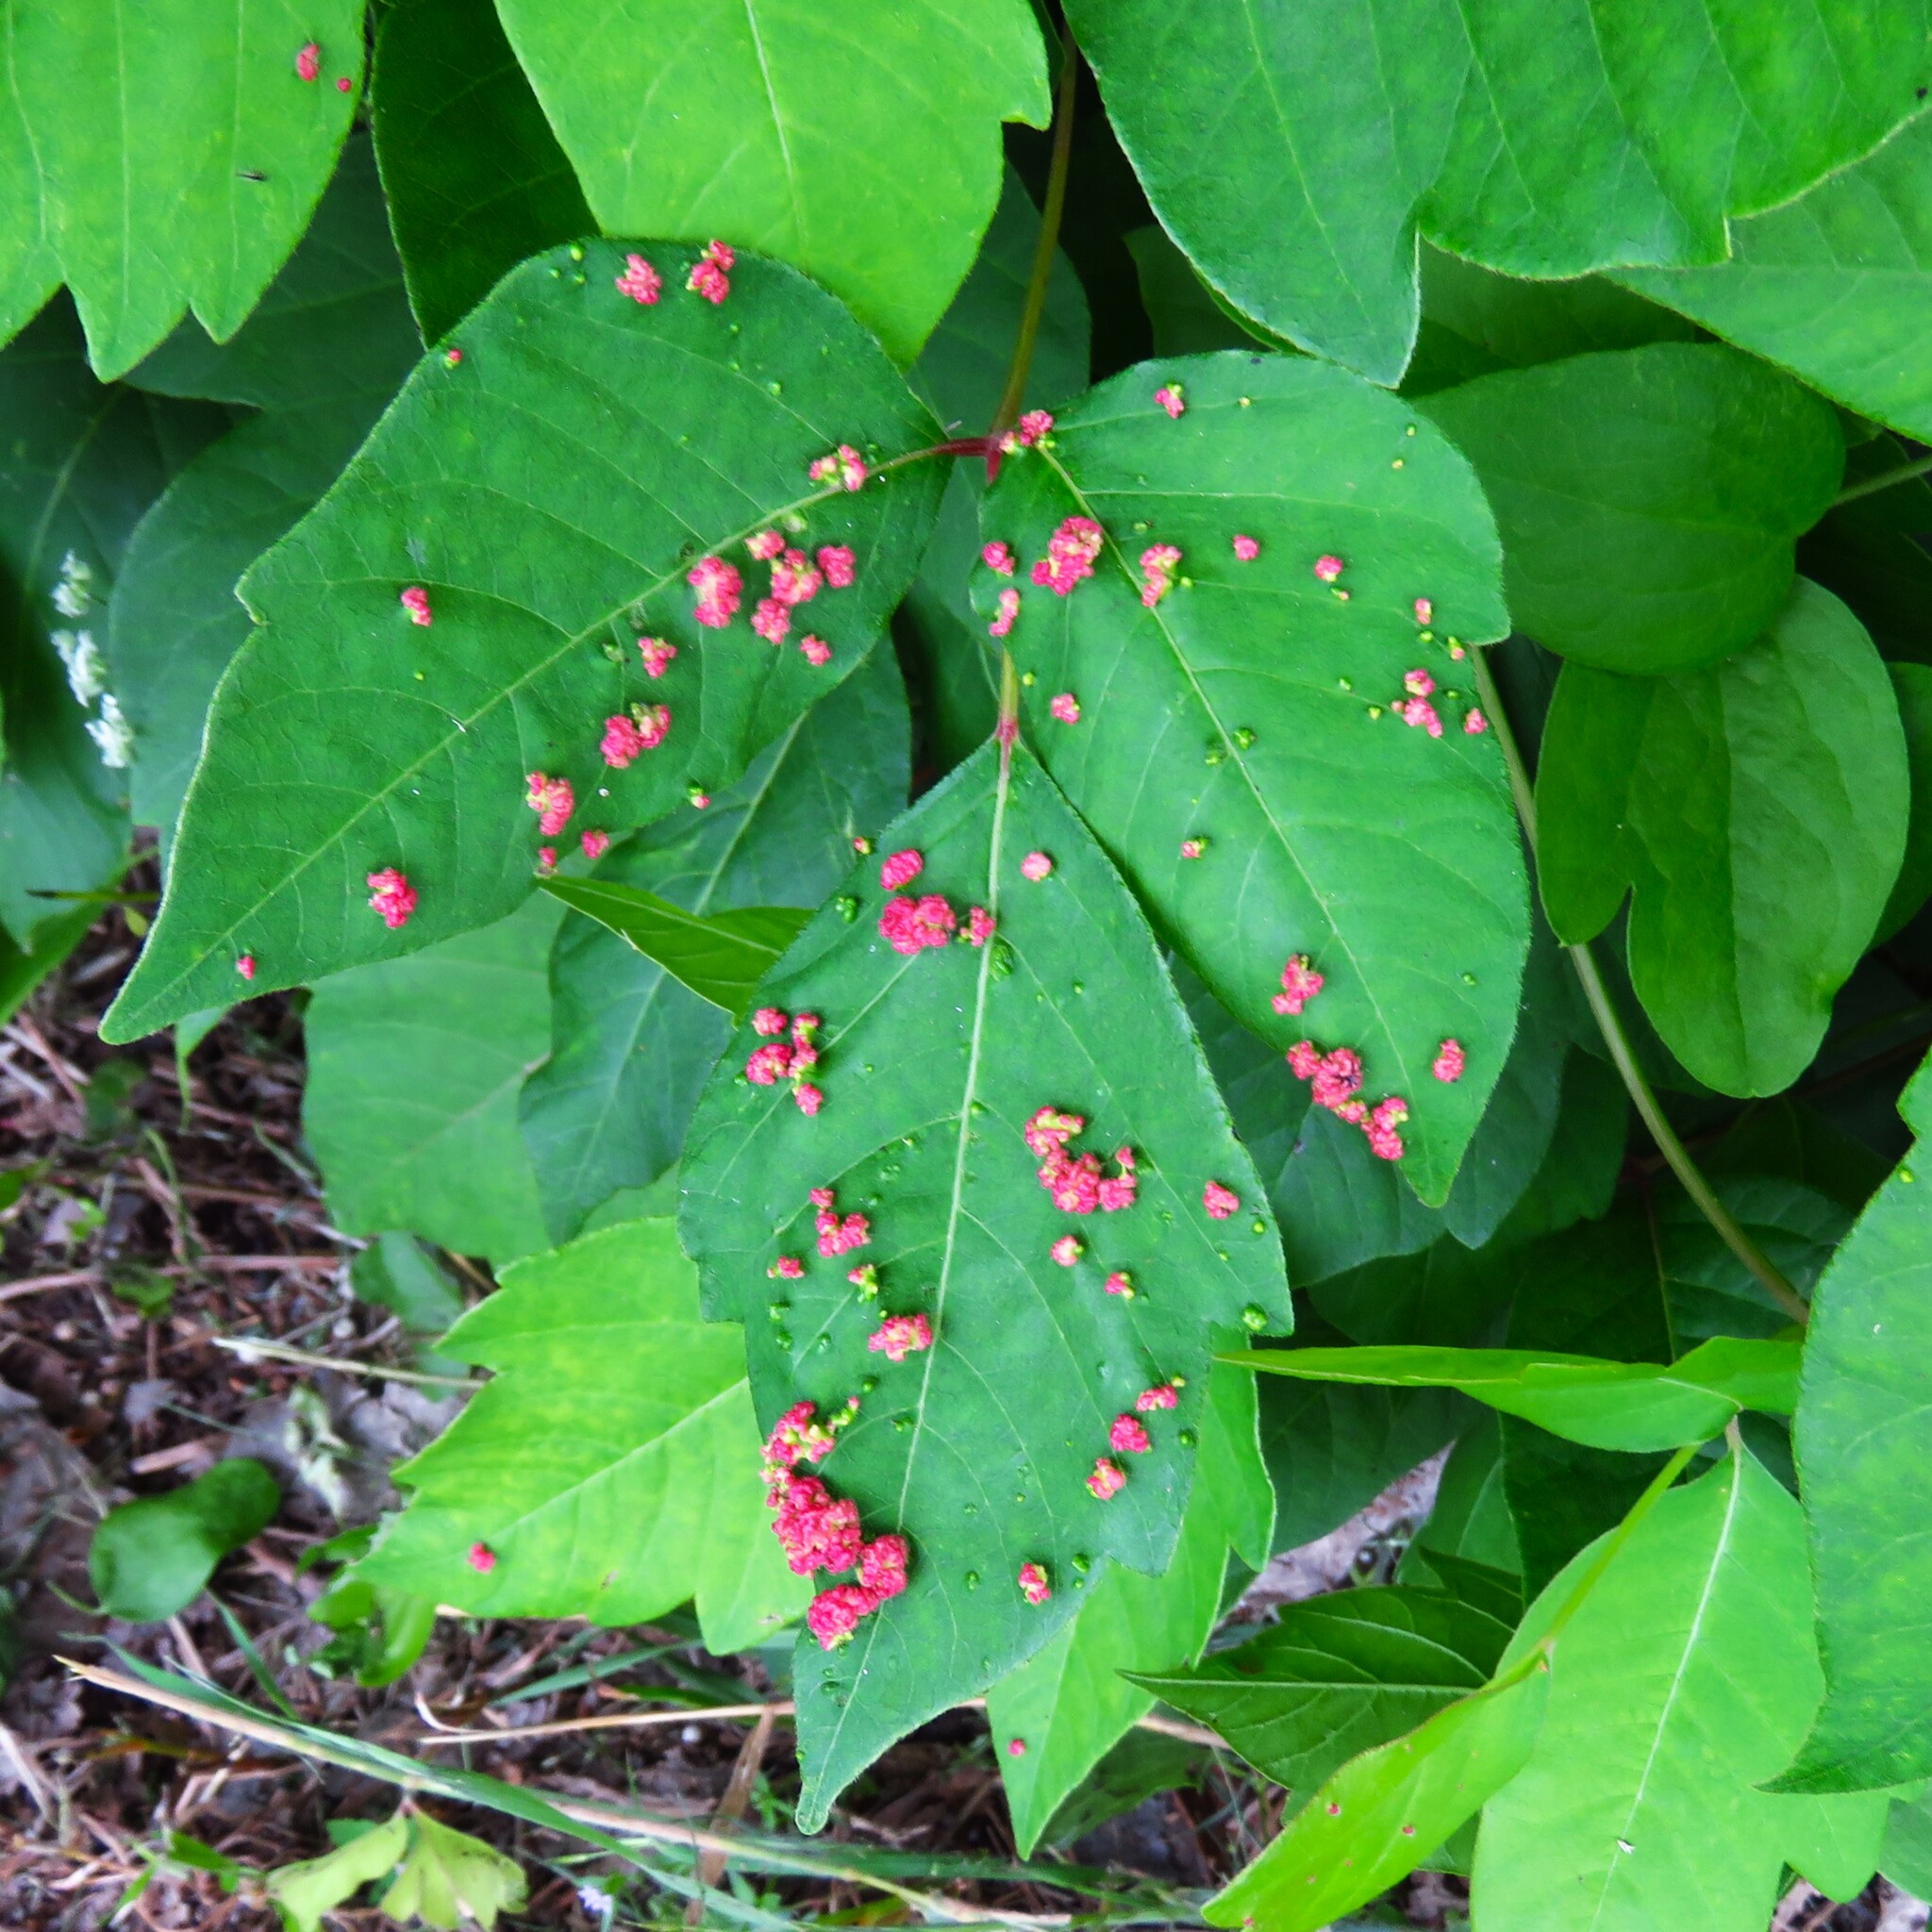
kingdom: Animalia
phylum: Arthropoda
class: Arachnida
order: Trombidiformes
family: Eriophyidae
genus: Aculops
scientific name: Aculops
